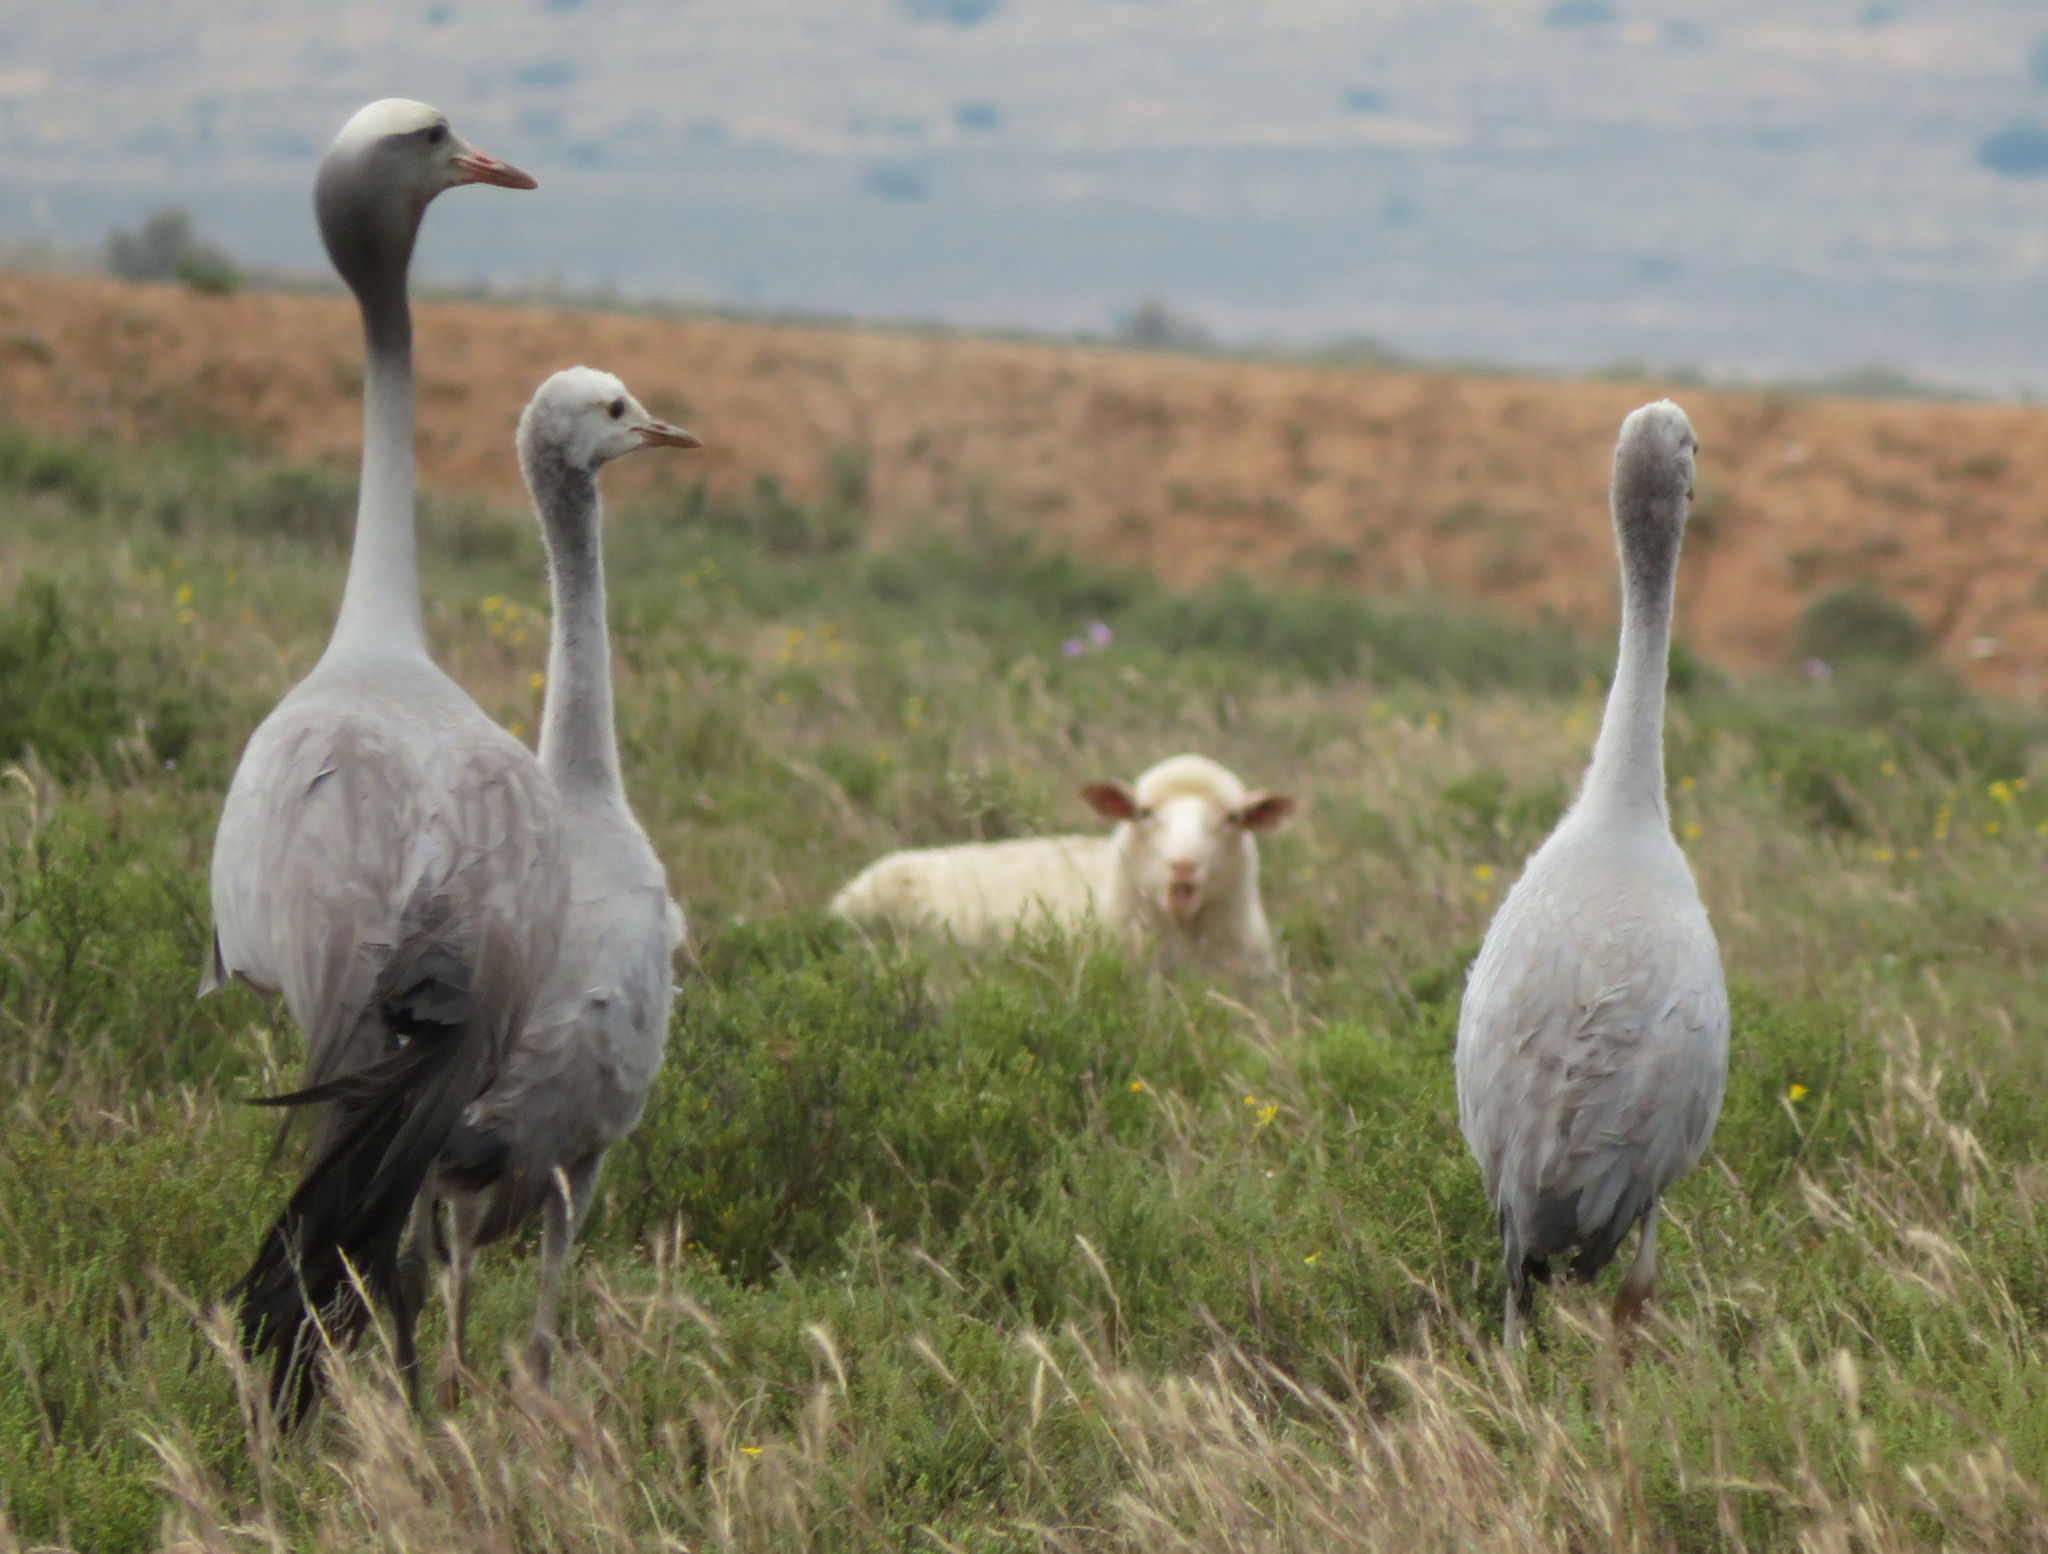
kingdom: Animalia
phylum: Chordata
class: Aves
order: Gruiformes
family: Gruidae
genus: Anthropoides
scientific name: Anthropoides paradiseus
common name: Blue crane
